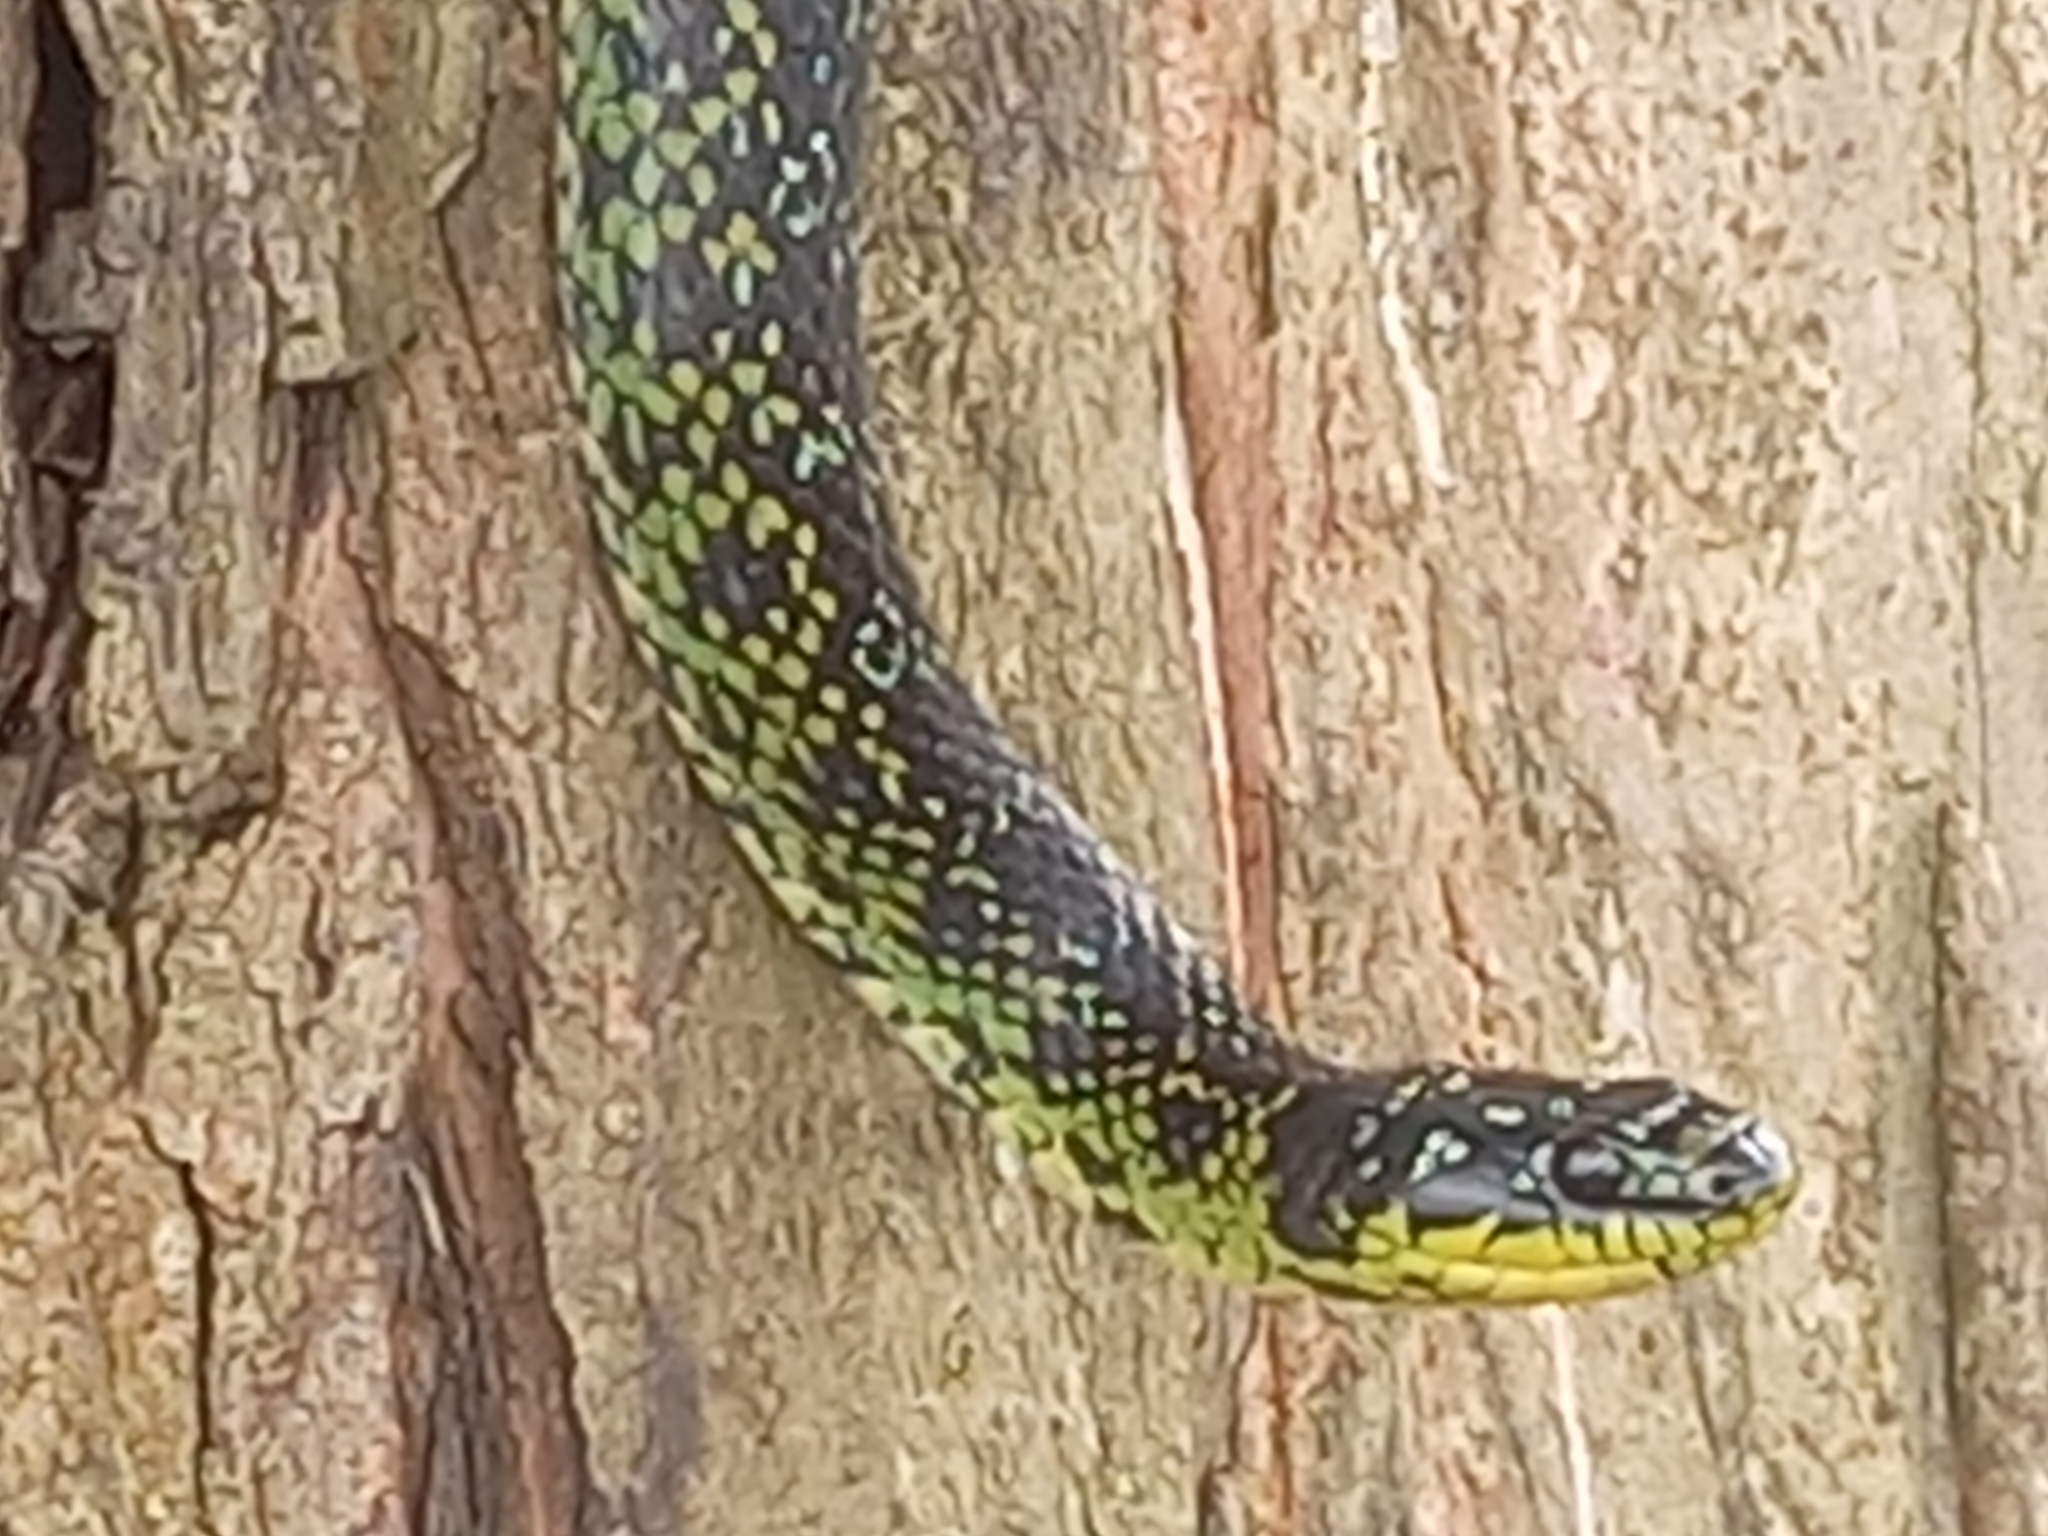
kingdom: Animalia
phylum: Chordata
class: Squamata
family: Colubridae
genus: Erythrolamprus
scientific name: Erythrolamprus poecilogyrus
